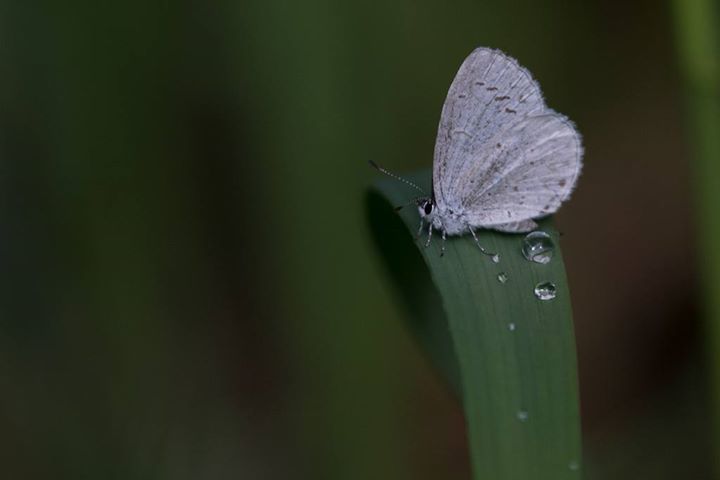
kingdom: Animalia
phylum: Arthropoda
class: Insecta
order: Lepidoptera
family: Lycaenidae
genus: Celastrina
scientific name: Celastrina ladon
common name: Spring azure
